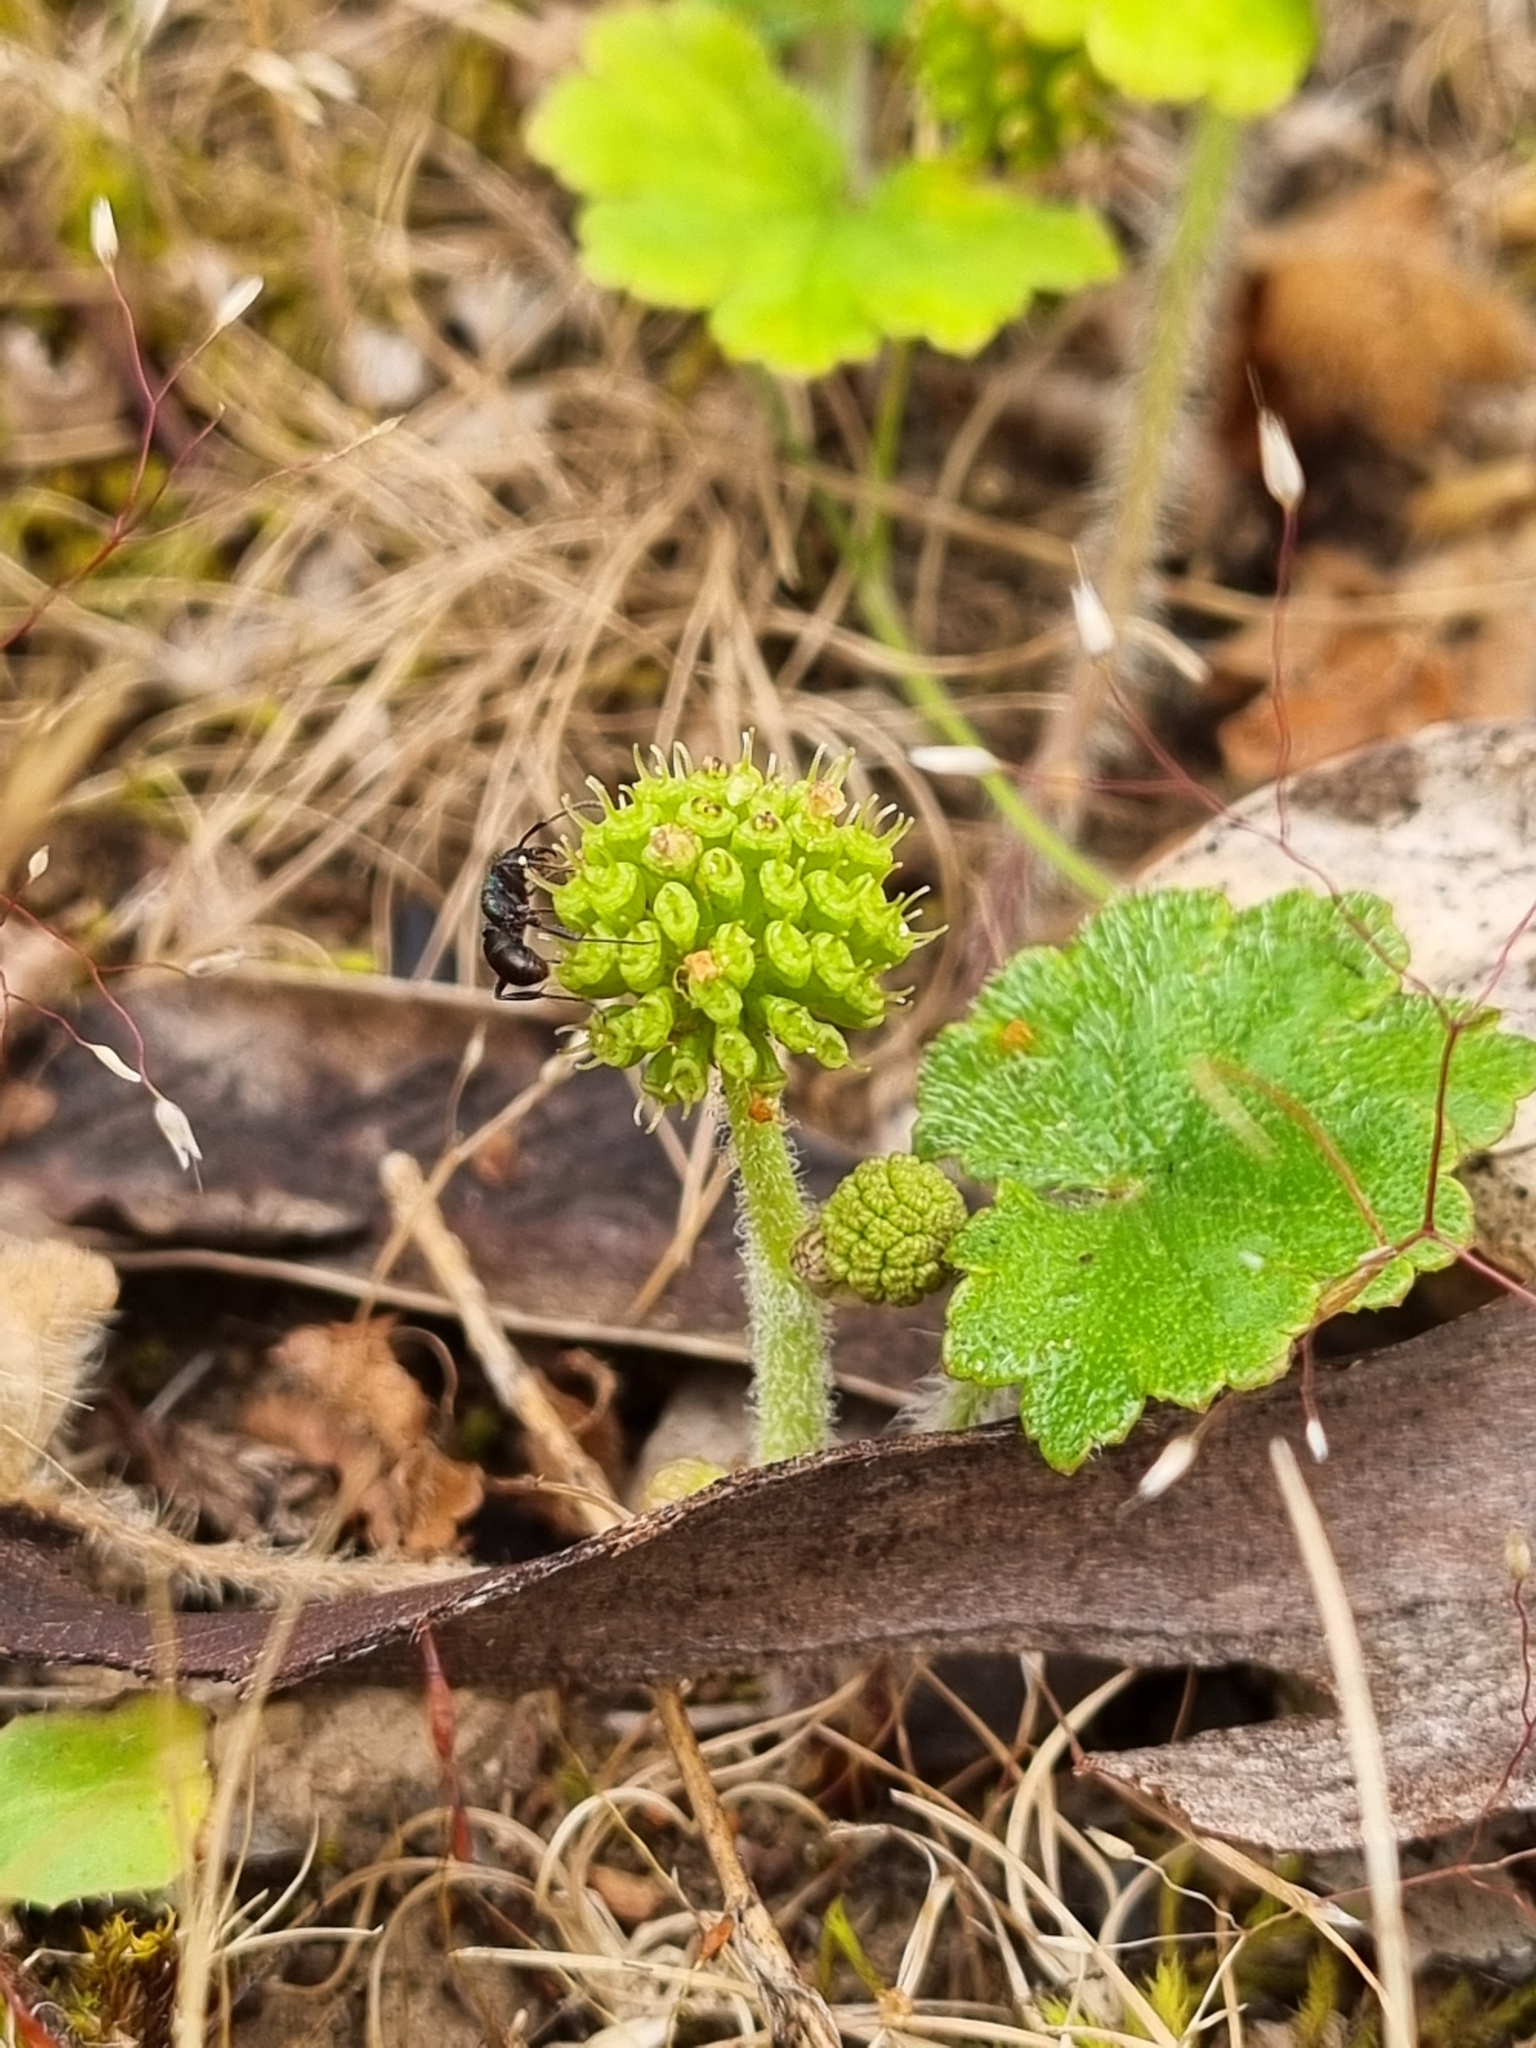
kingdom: Plantae
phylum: Tracheophyta
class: Magnoliopsida
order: Apiales
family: Araliaceae
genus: Hydrocotyle
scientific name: Hydrocotyle laxiflora
